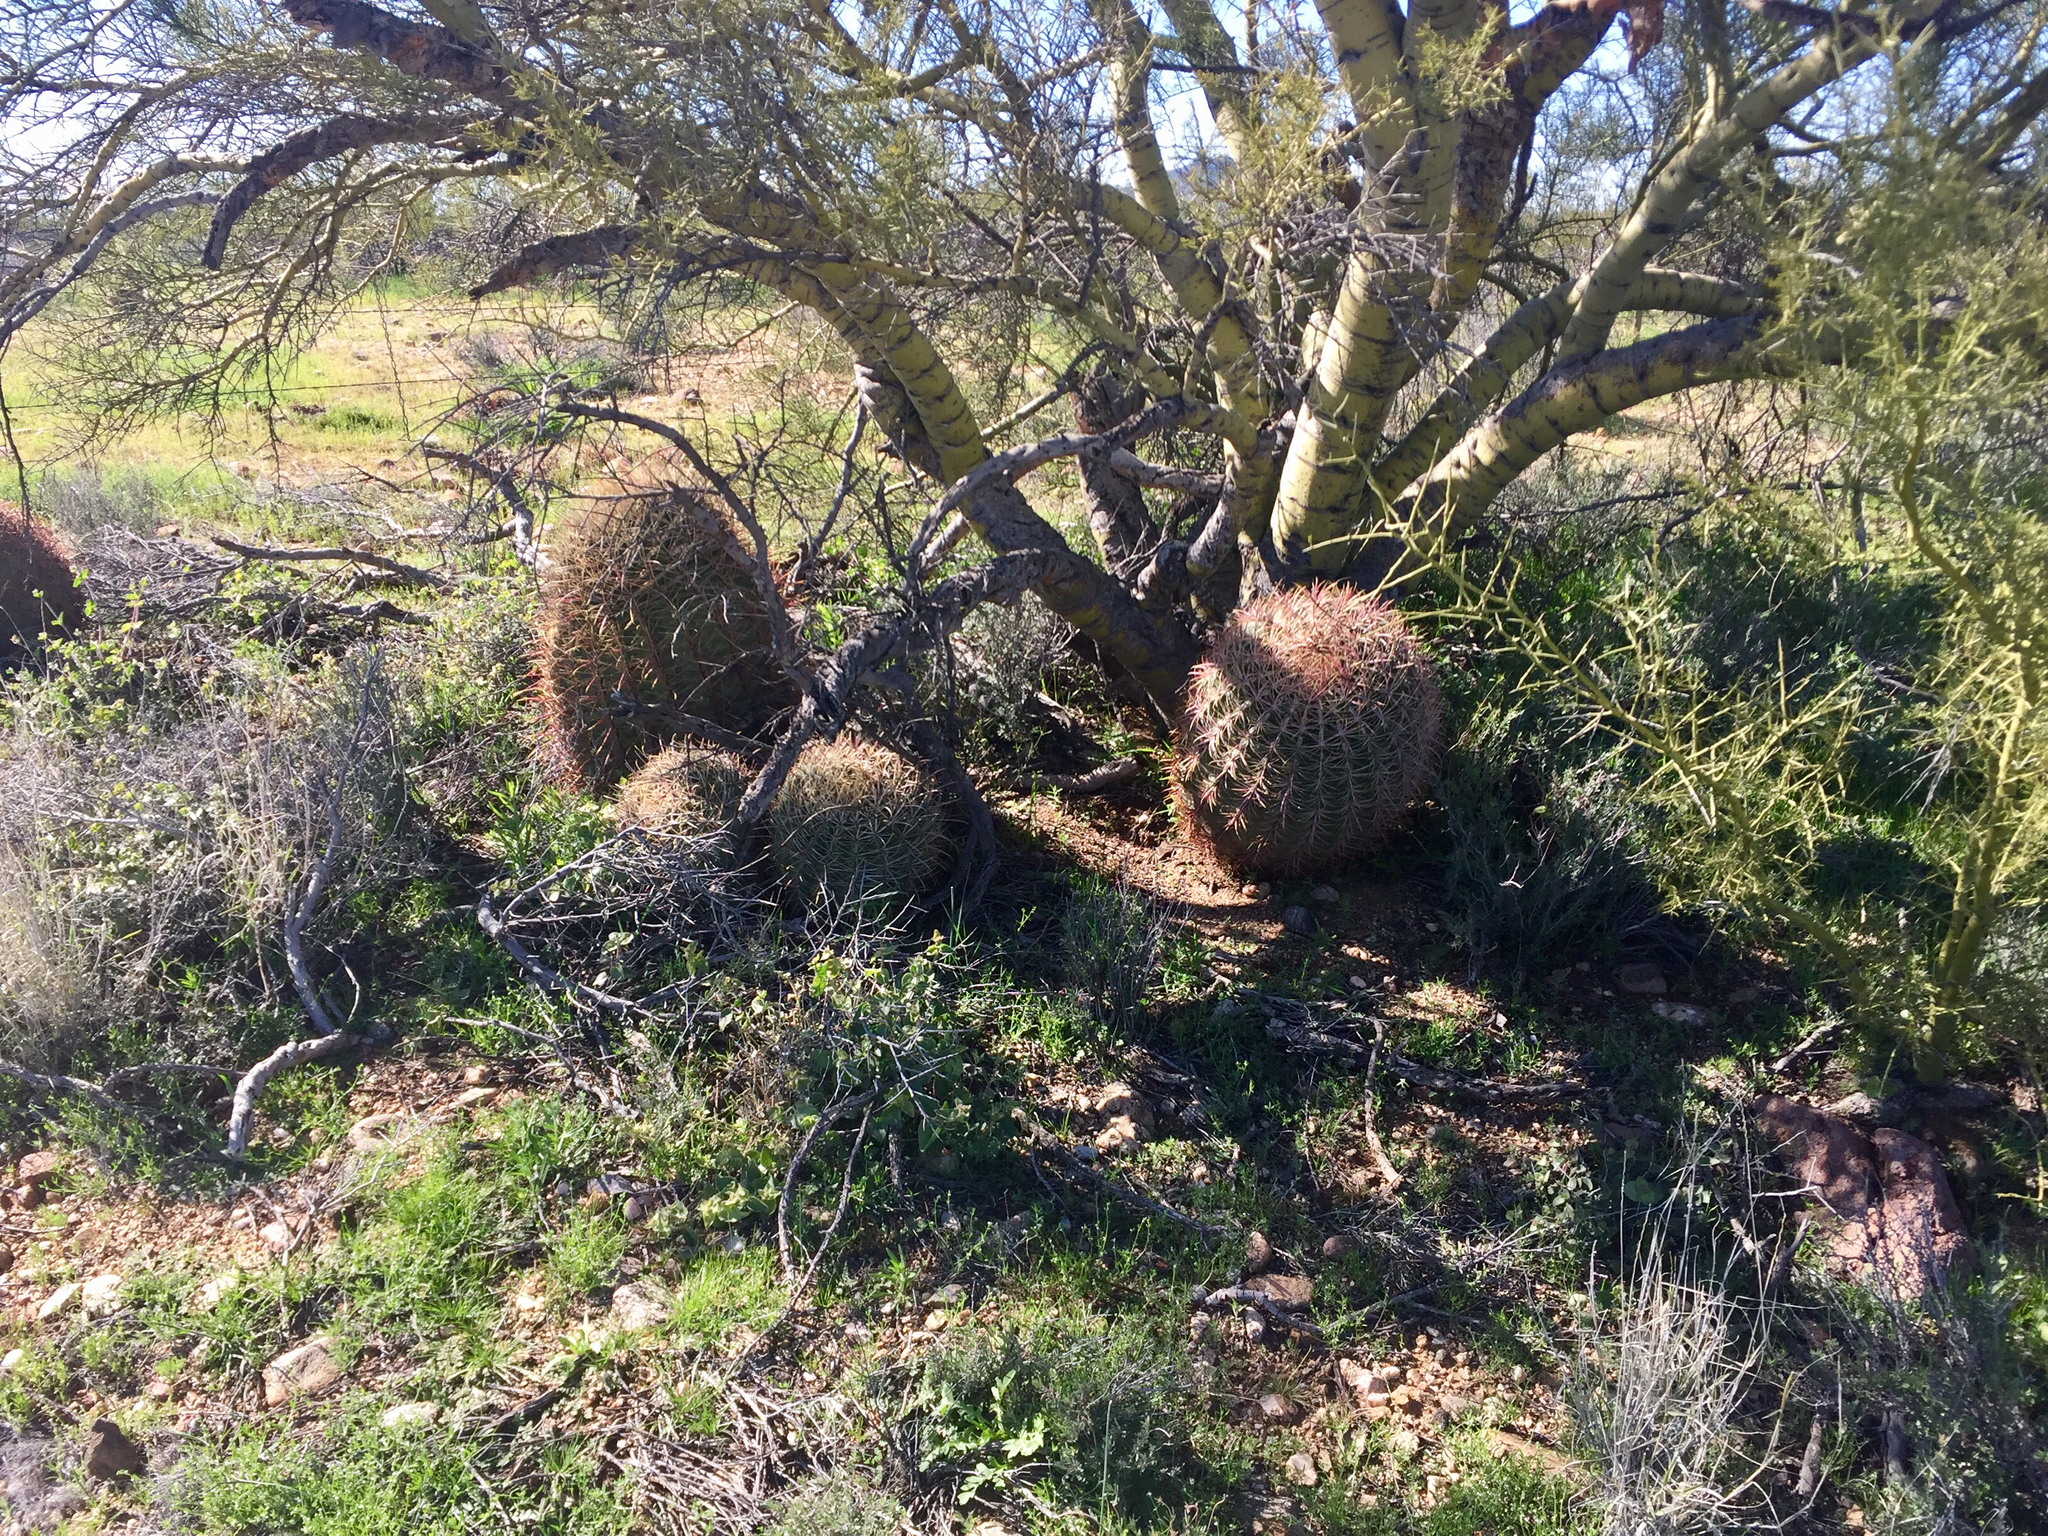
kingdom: Plantae
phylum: Tracheophyta
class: Magnoliopsida
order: Caryophyllales
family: Cactaceae
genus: Ferocactus
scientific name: Ferocactus cylindraceus
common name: California barrel cactus
